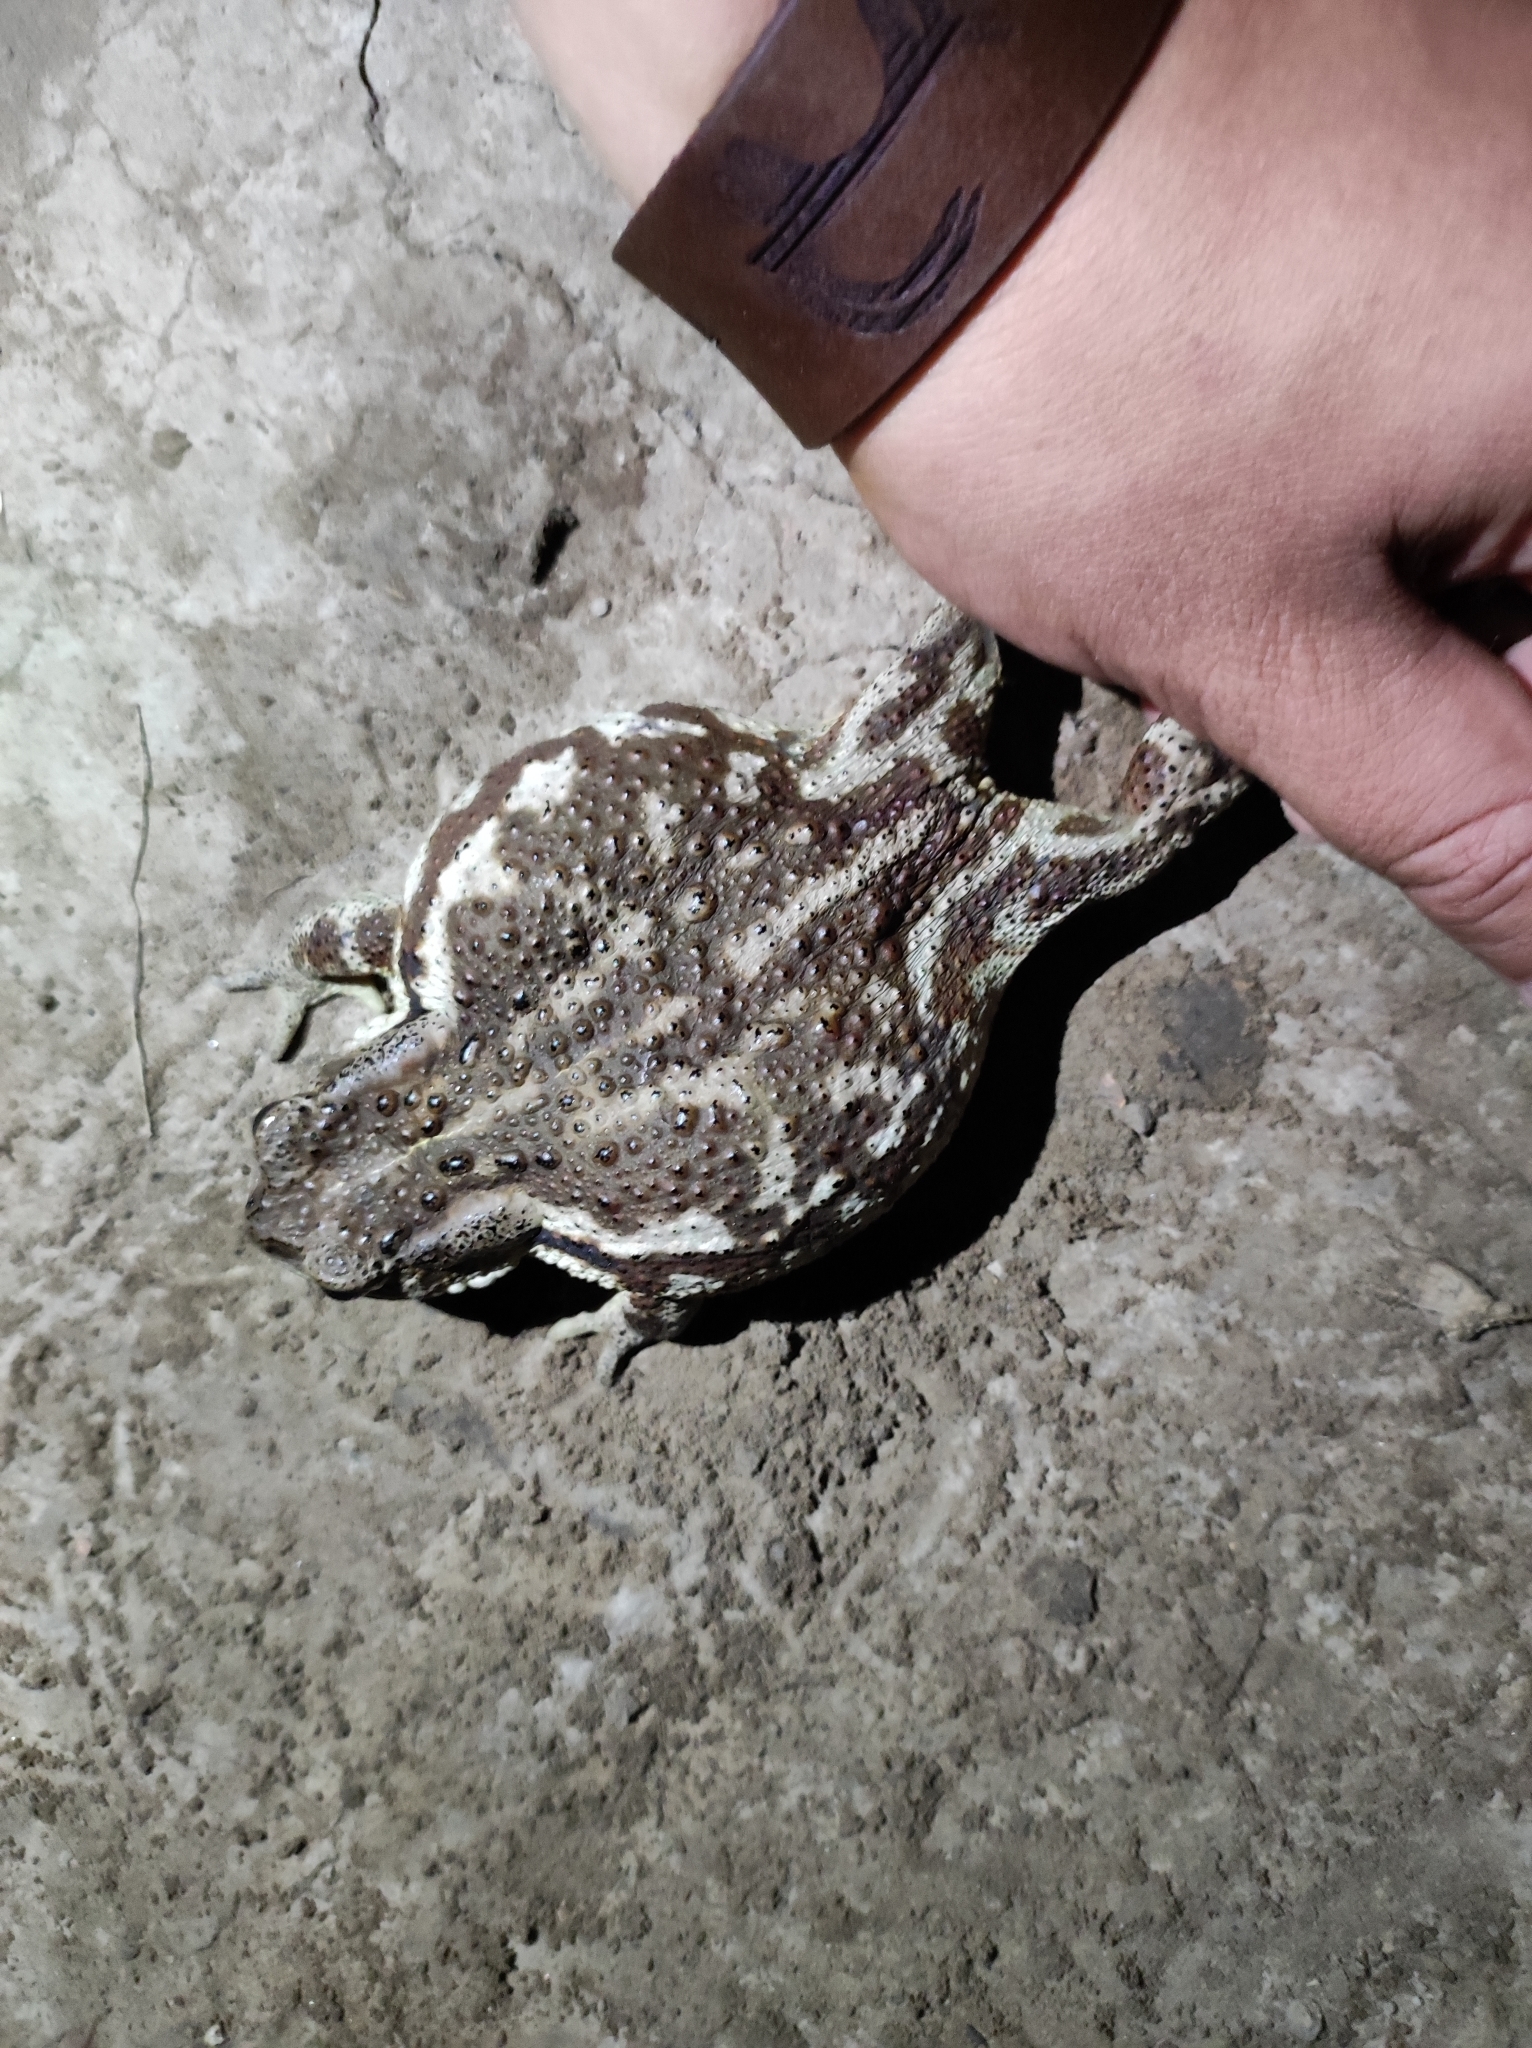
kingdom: Animalia
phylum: Chordata
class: Amphibia
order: Anura
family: Bufonidae
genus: Bufo
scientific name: Bufo gargarizans
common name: Asiatic toad
